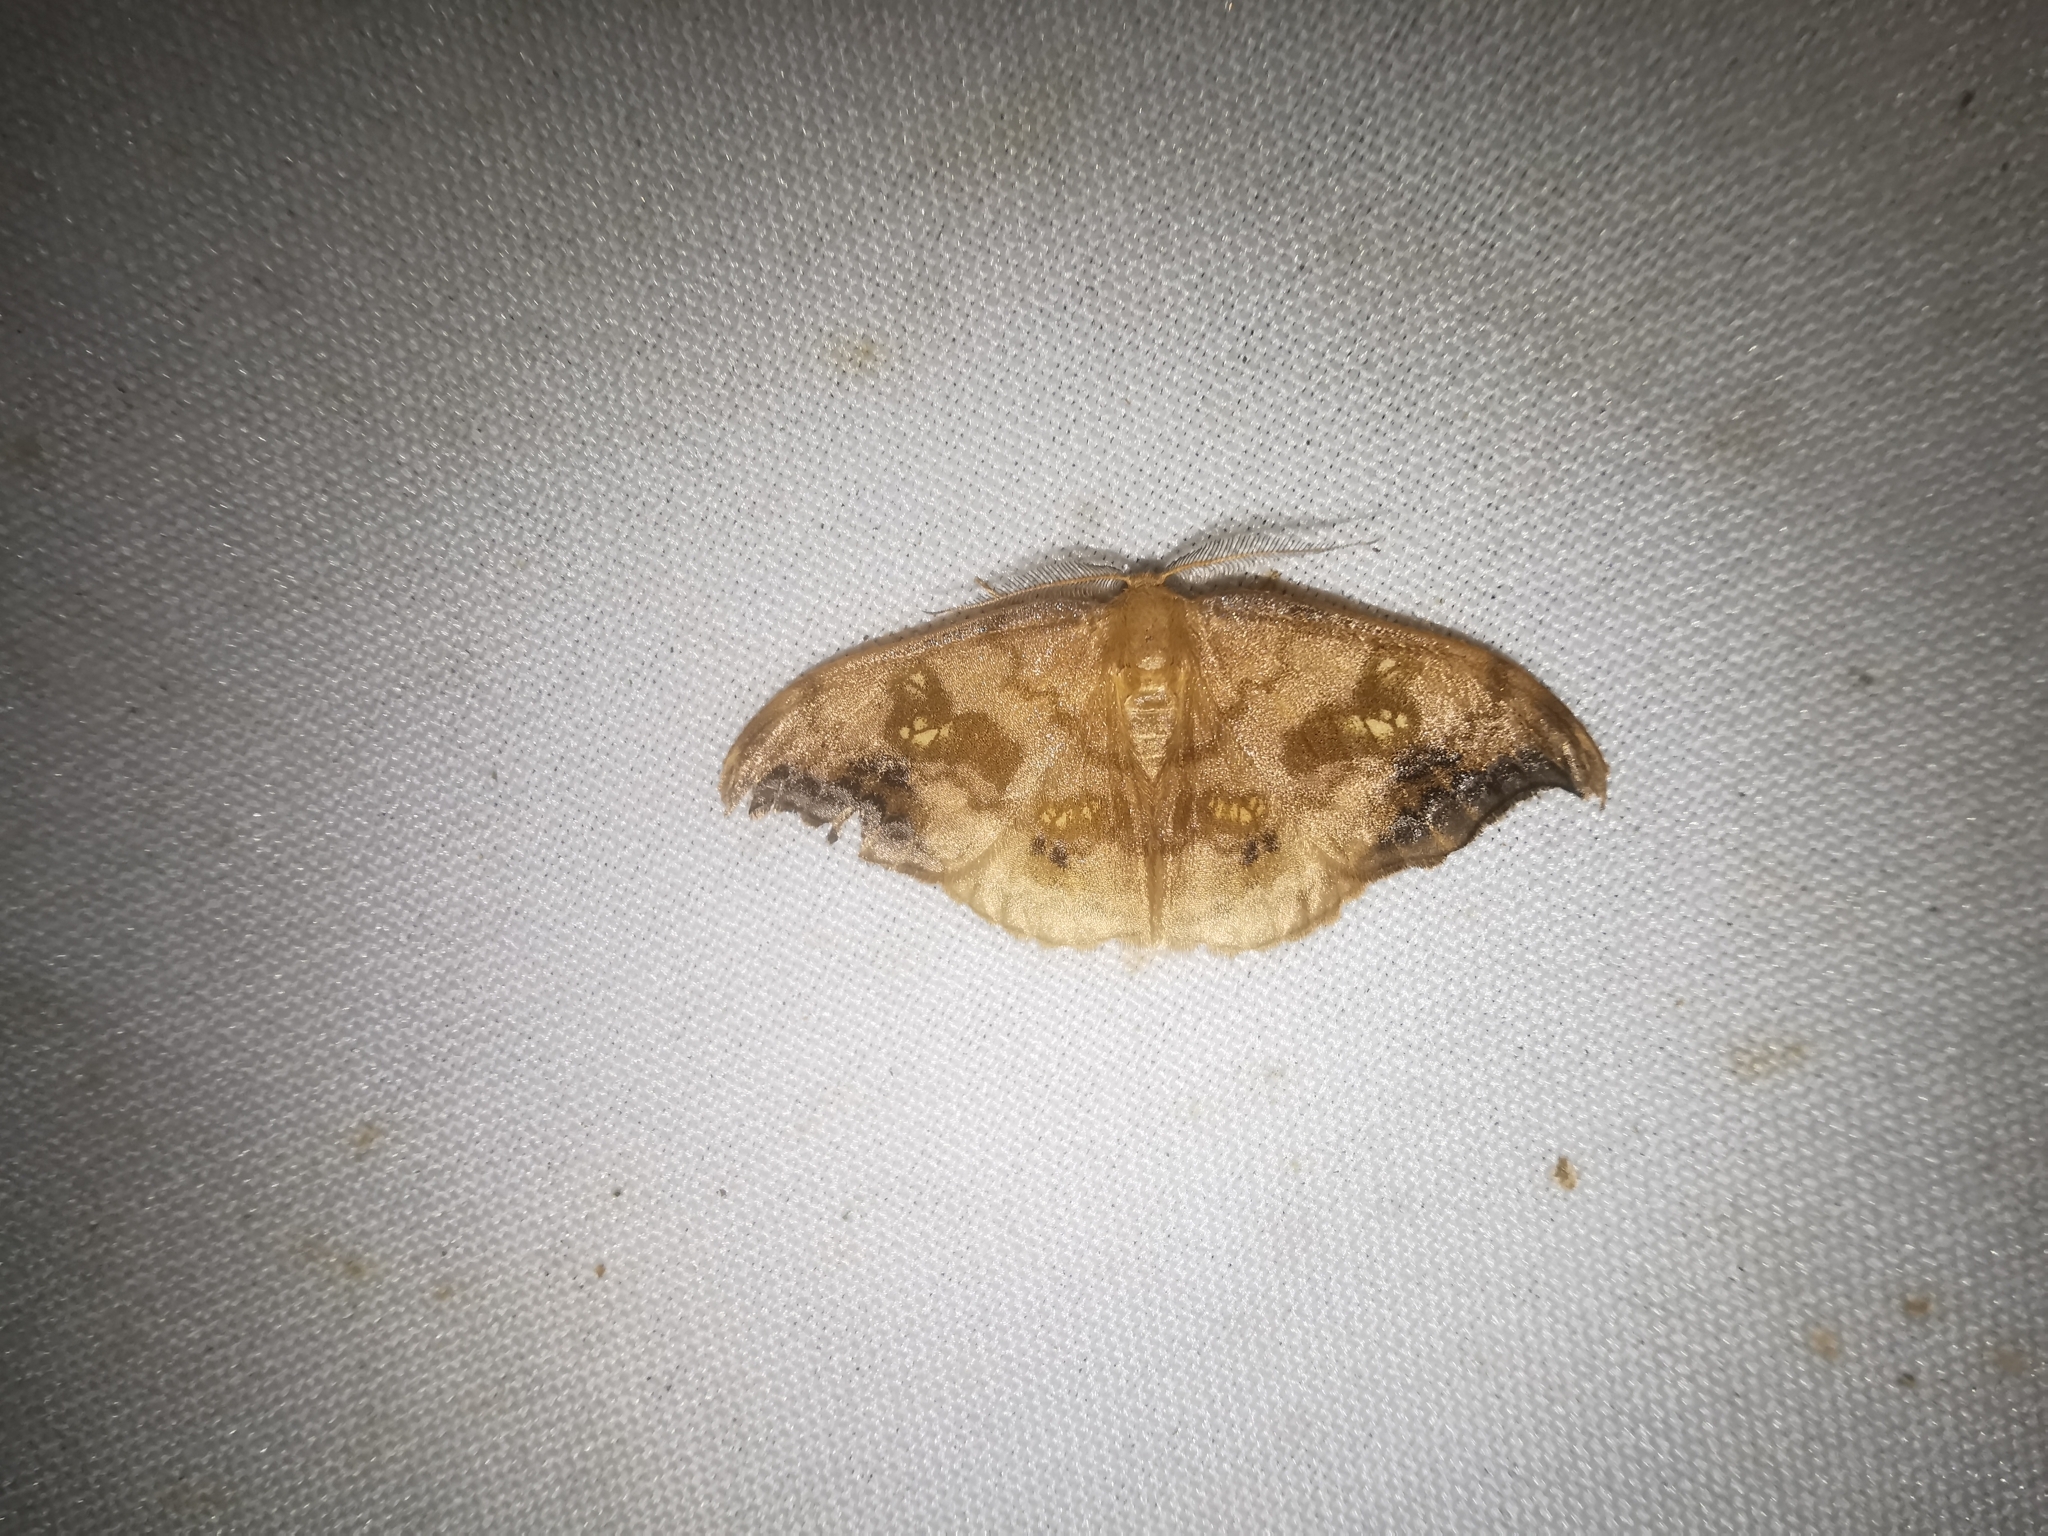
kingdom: Animalia
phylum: Arthropoda
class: Insecta
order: Lepidoptera
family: Drepanidae
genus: Sabra
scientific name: Sabra harpagula
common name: Scarce hook-tip
